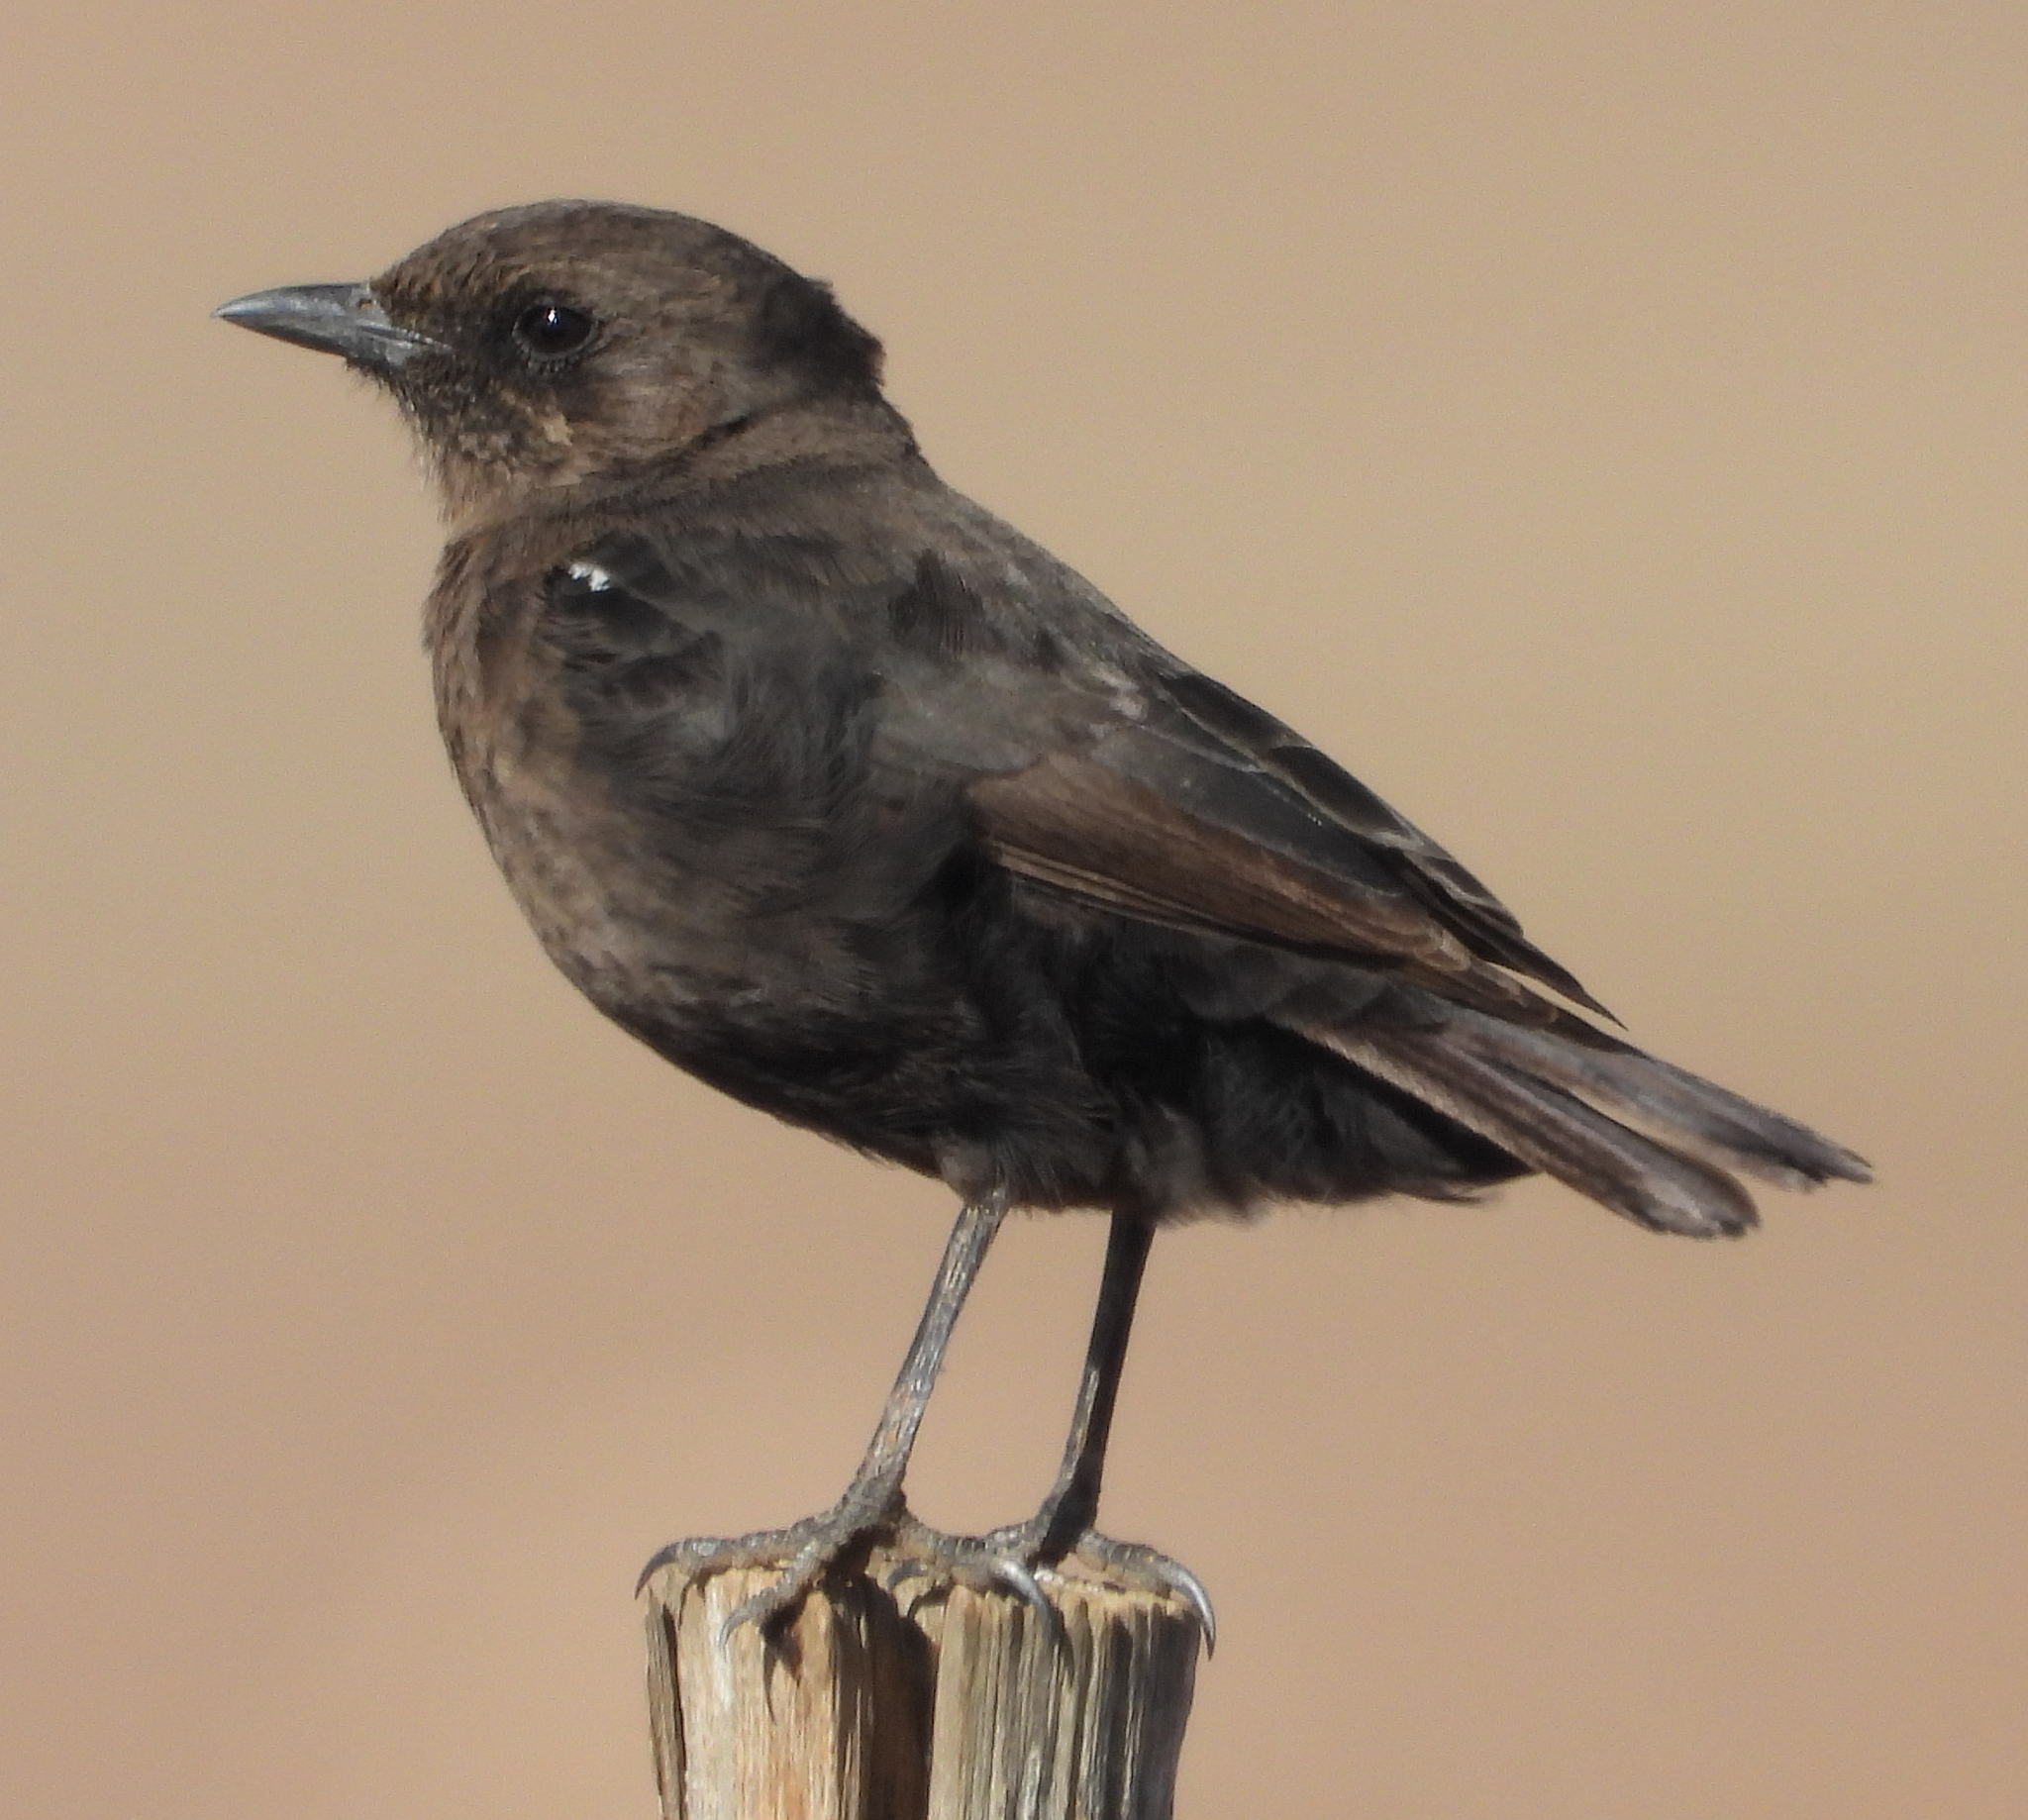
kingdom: Animalia
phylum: Chordata
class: Aves
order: Passeriformes
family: Muscicapidae
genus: Myrmecocichla
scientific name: Myrmecocichla formicivora
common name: Ant-eating chat
